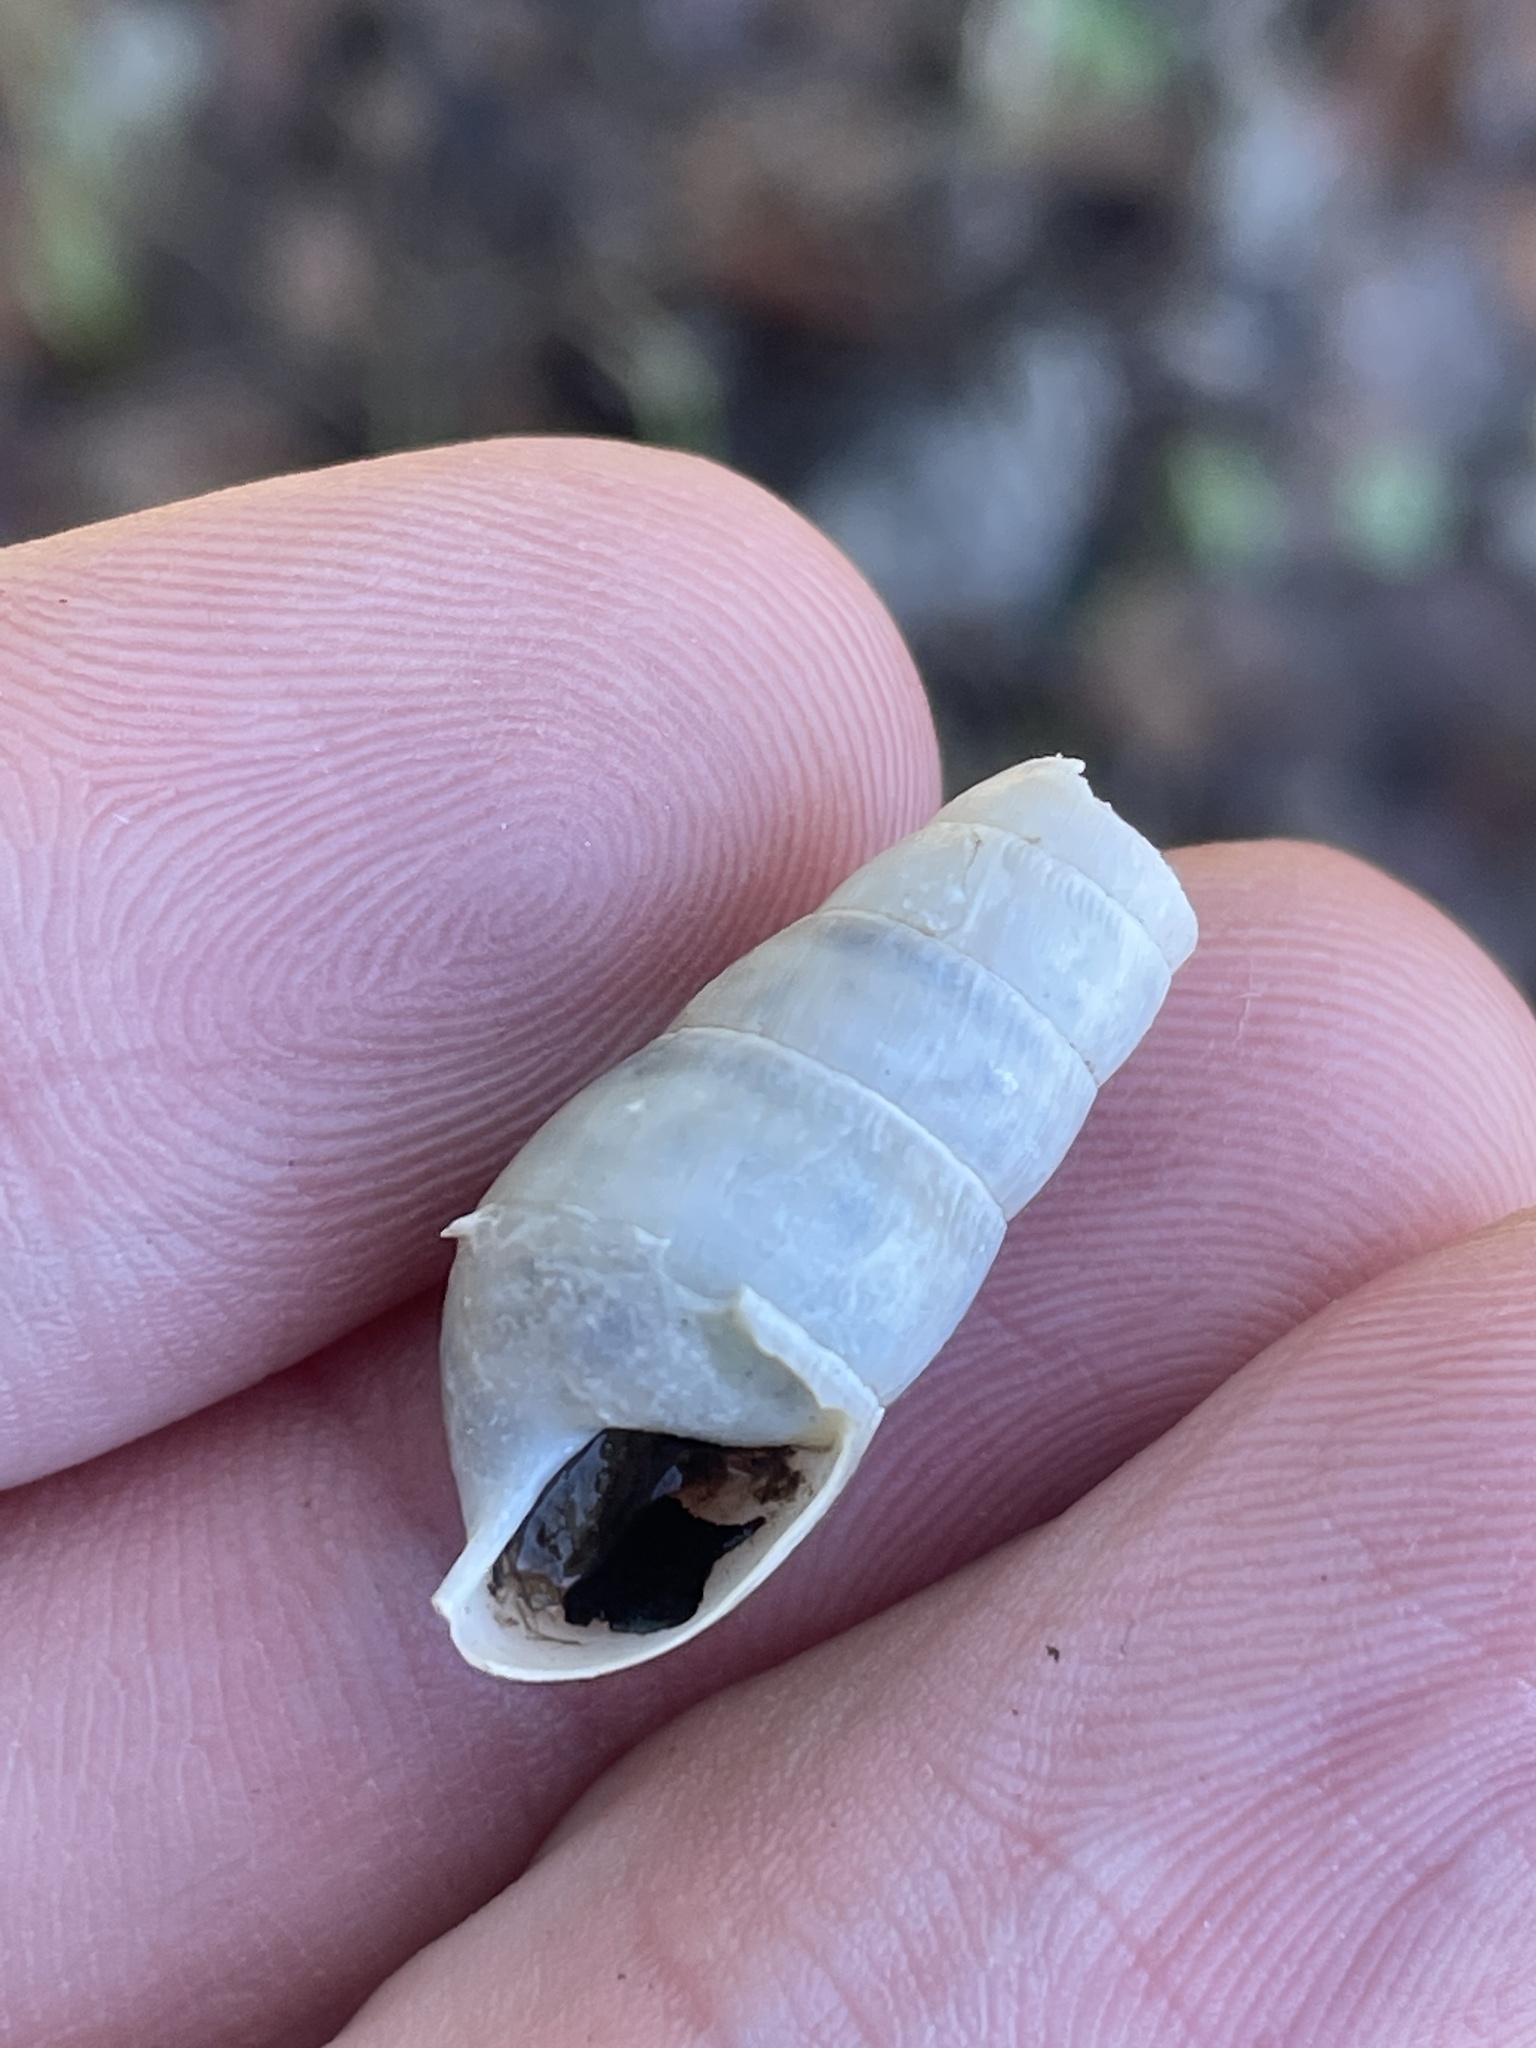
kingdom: Animalia
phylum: Mollusca
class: Gastropoda
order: Stylommatophora
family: Achatinidae
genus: Rumina
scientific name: Rumina decollata
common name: Decollate snail
